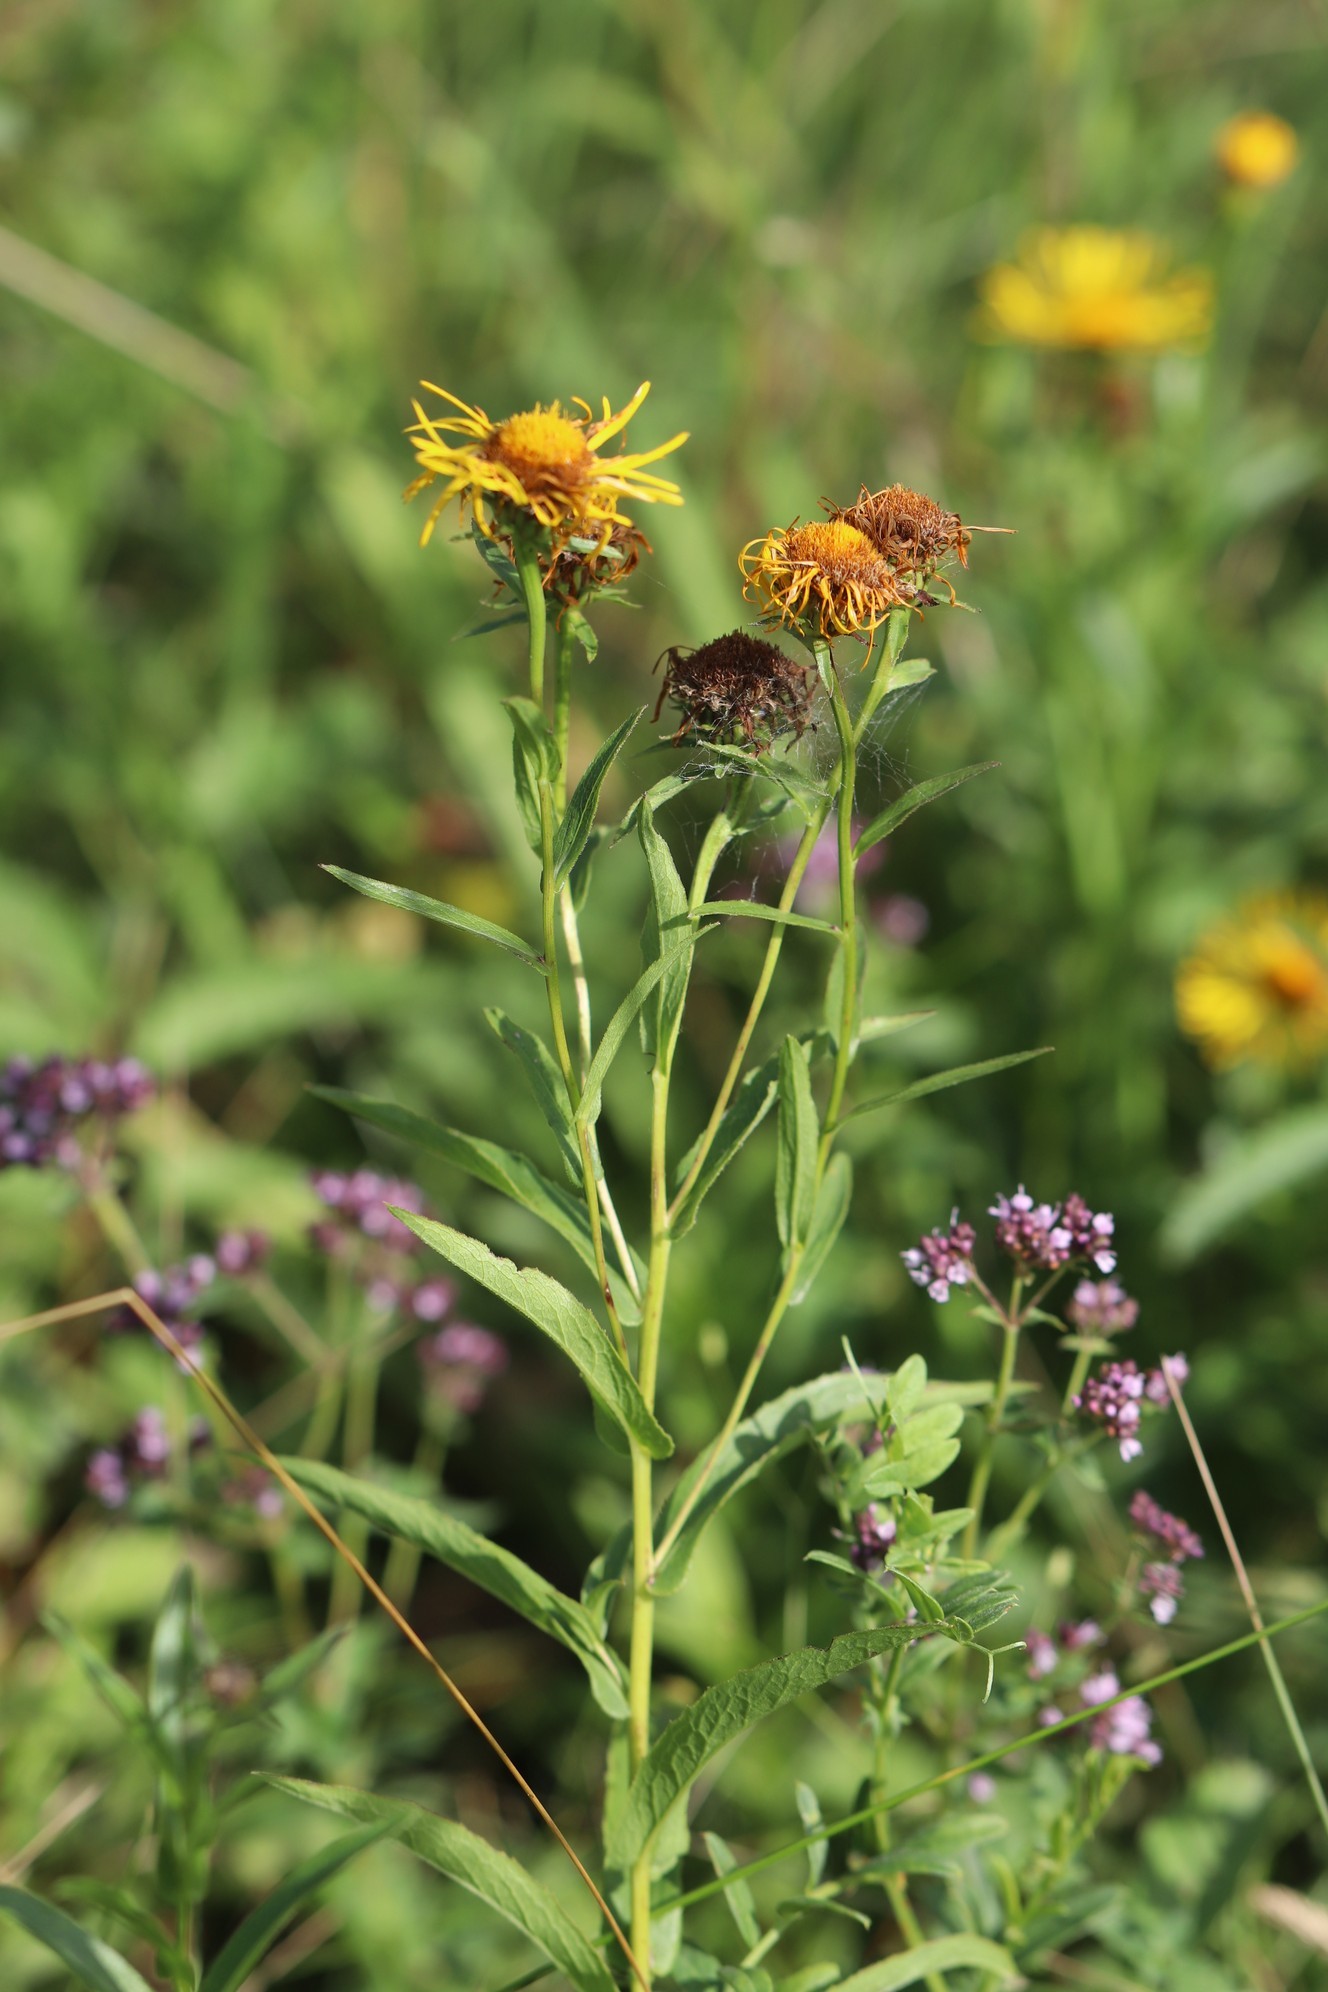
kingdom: Plantae
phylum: Tracheophyta
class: Magnoliopsida
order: Asterales
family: Asteraceae
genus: Pentanema
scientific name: Pentanema salicinum
